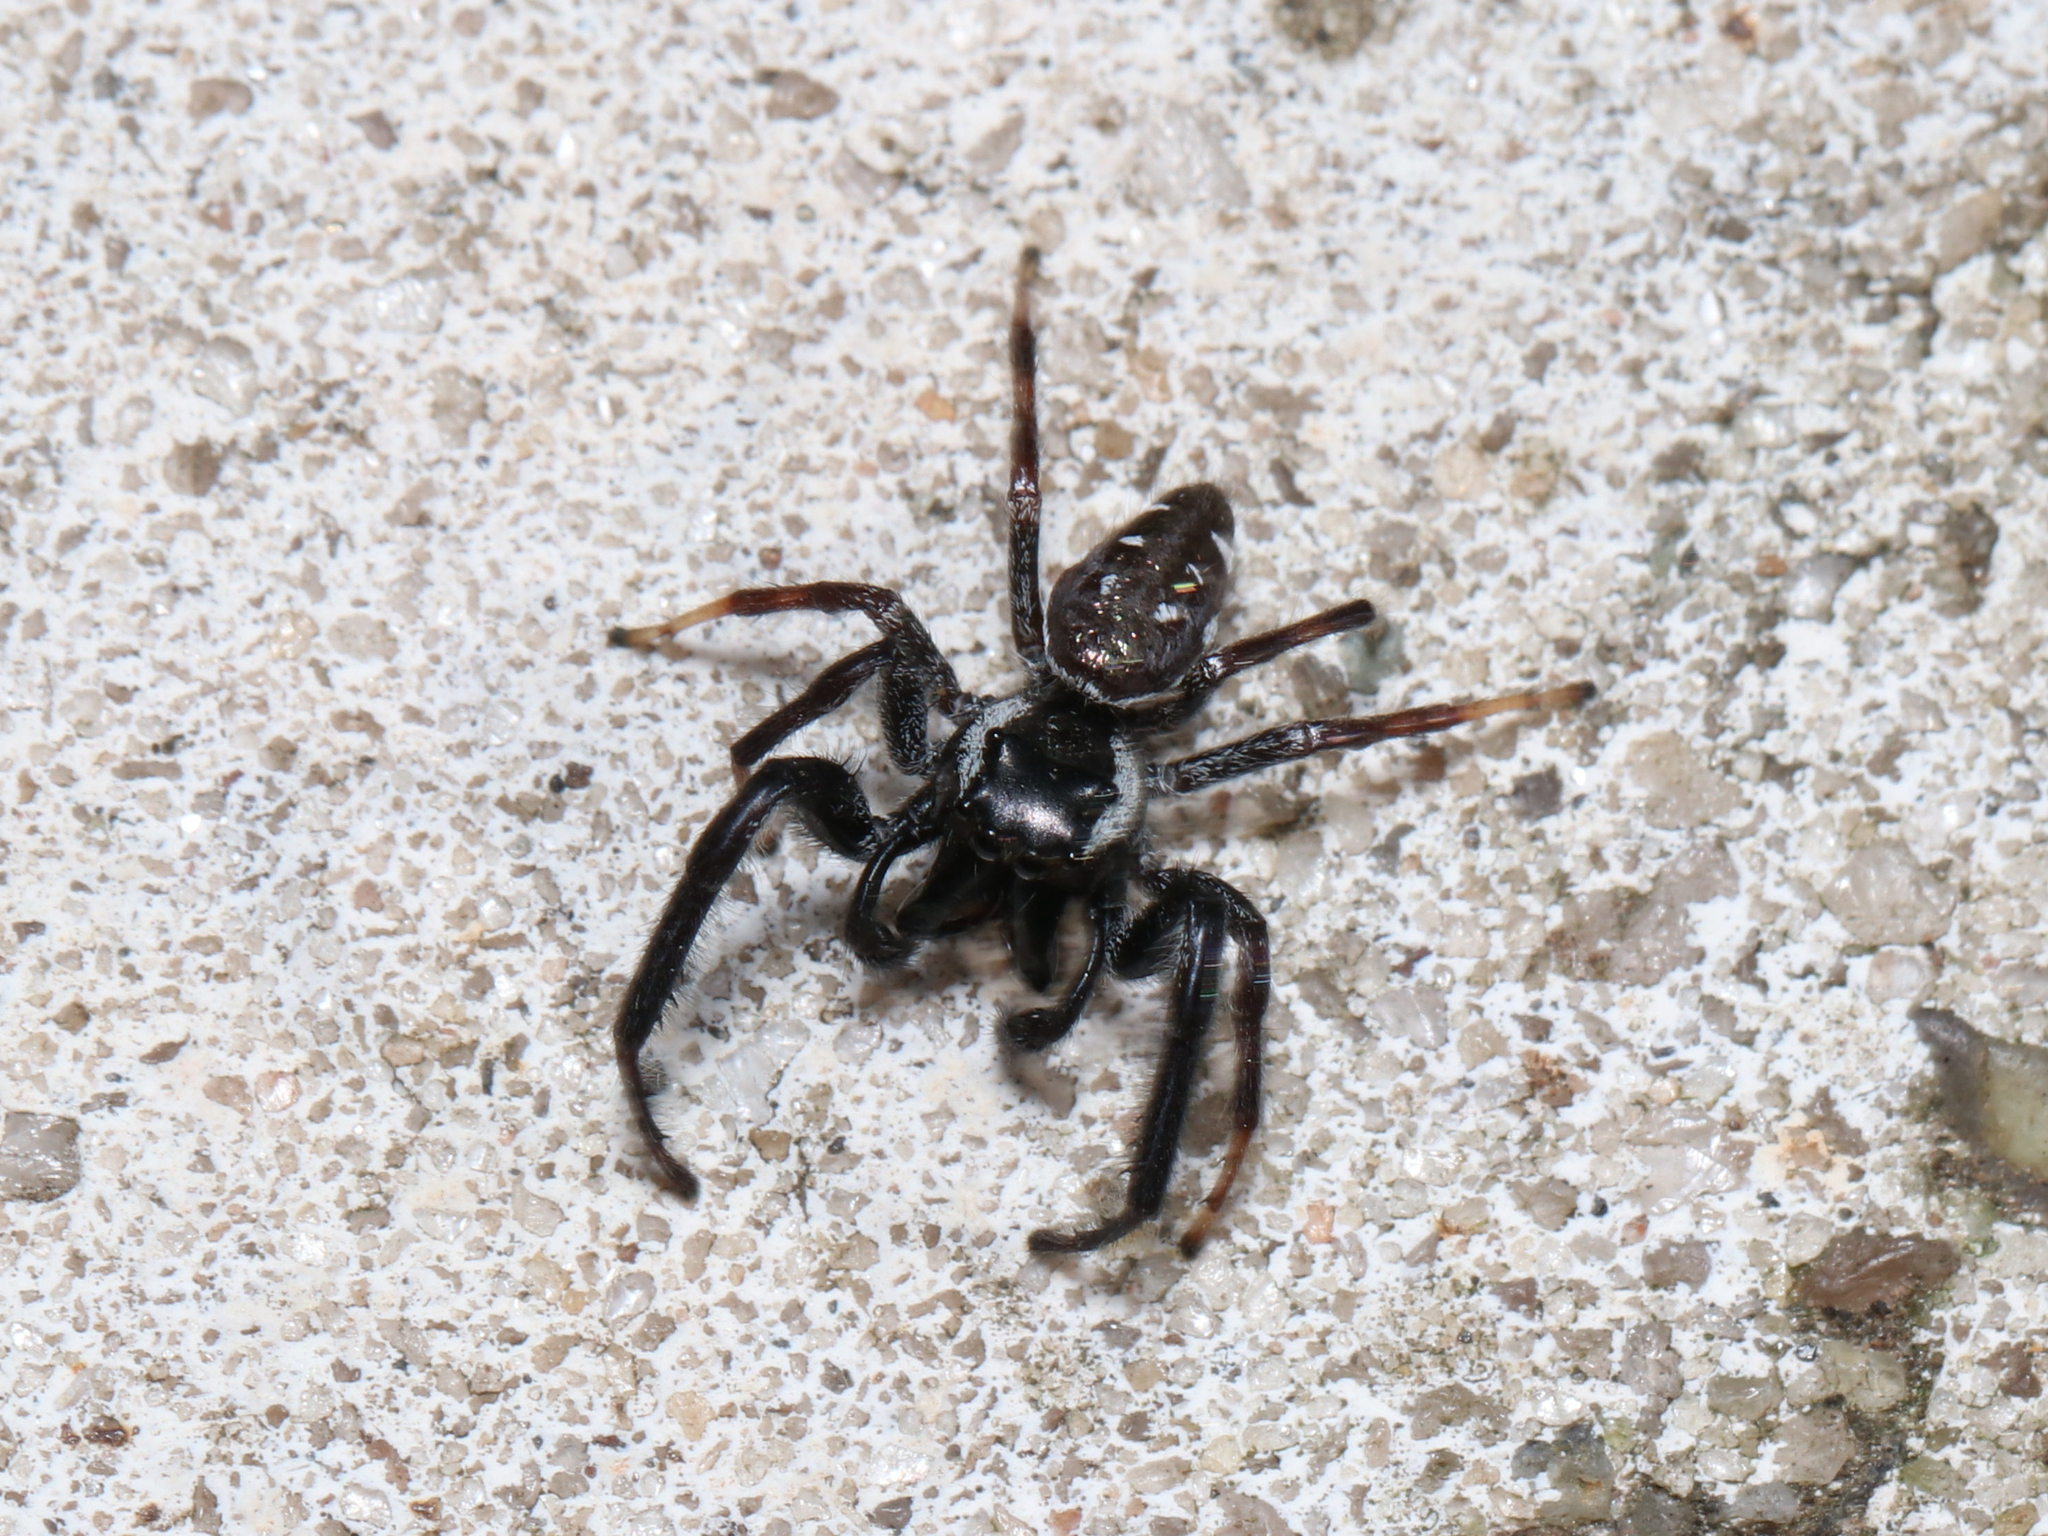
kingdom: Animalia
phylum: Arthropoda
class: Arachnida
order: Araneae
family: Salticidae
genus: Paraphidippus
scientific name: Paraphidippus aurantius
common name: Jumping spiders
